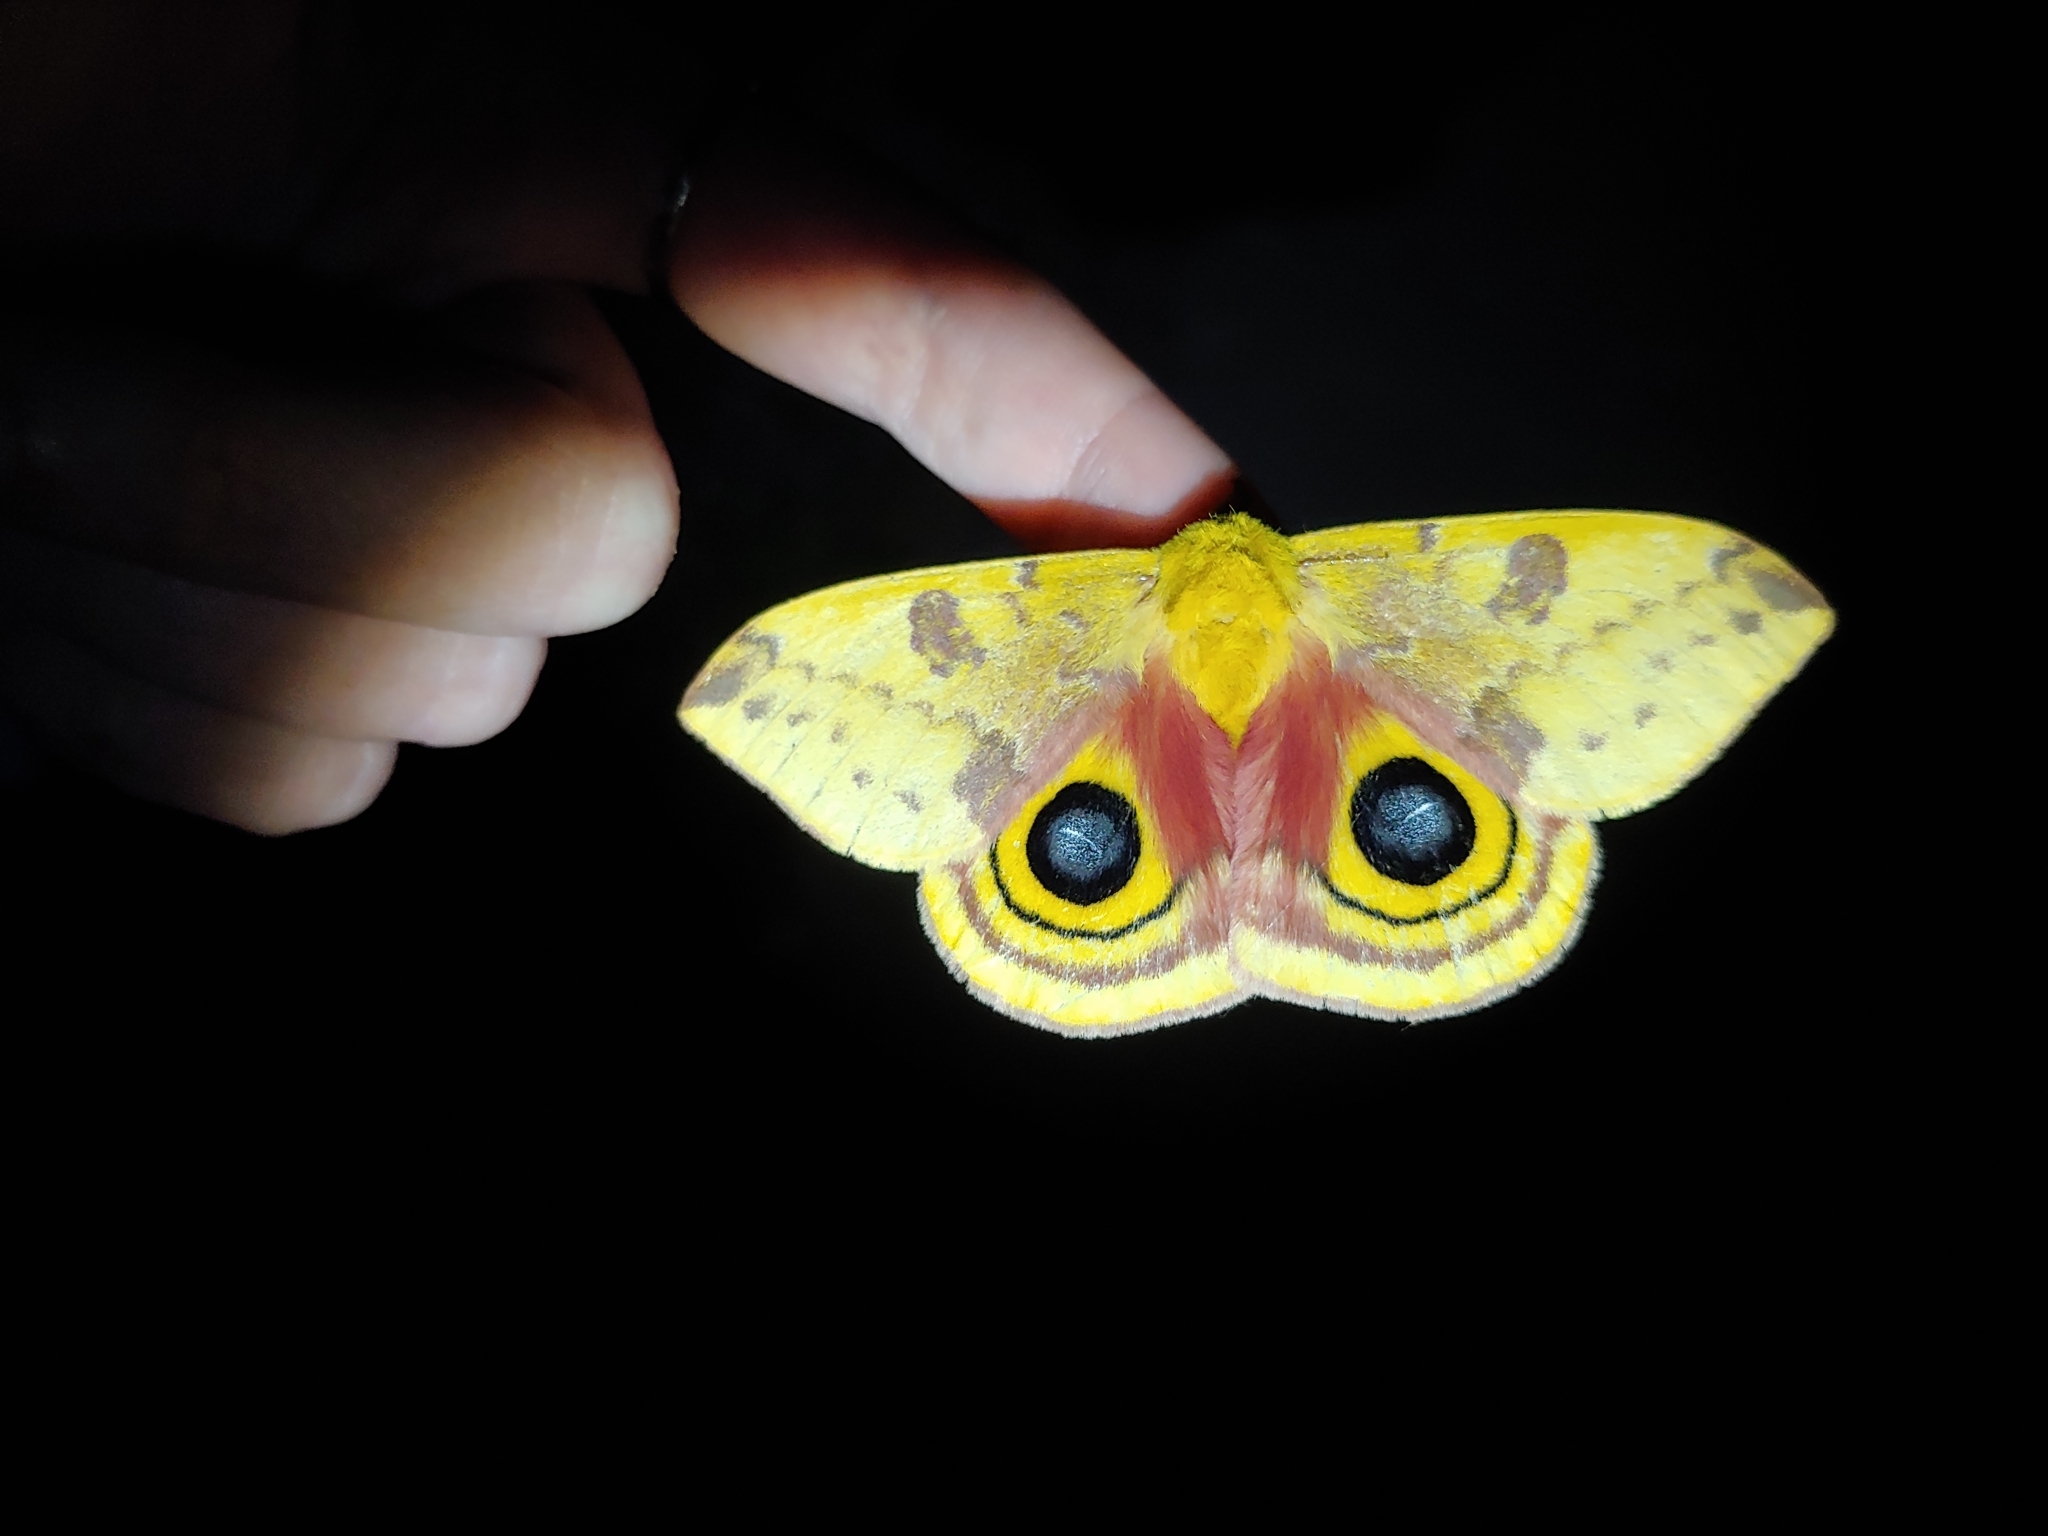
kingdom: Animalia
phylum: Arthropoda
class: Insecta
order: Lepidoptera
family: Saturniidae
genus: Automeris
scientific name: Automeris io
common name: Io moth
